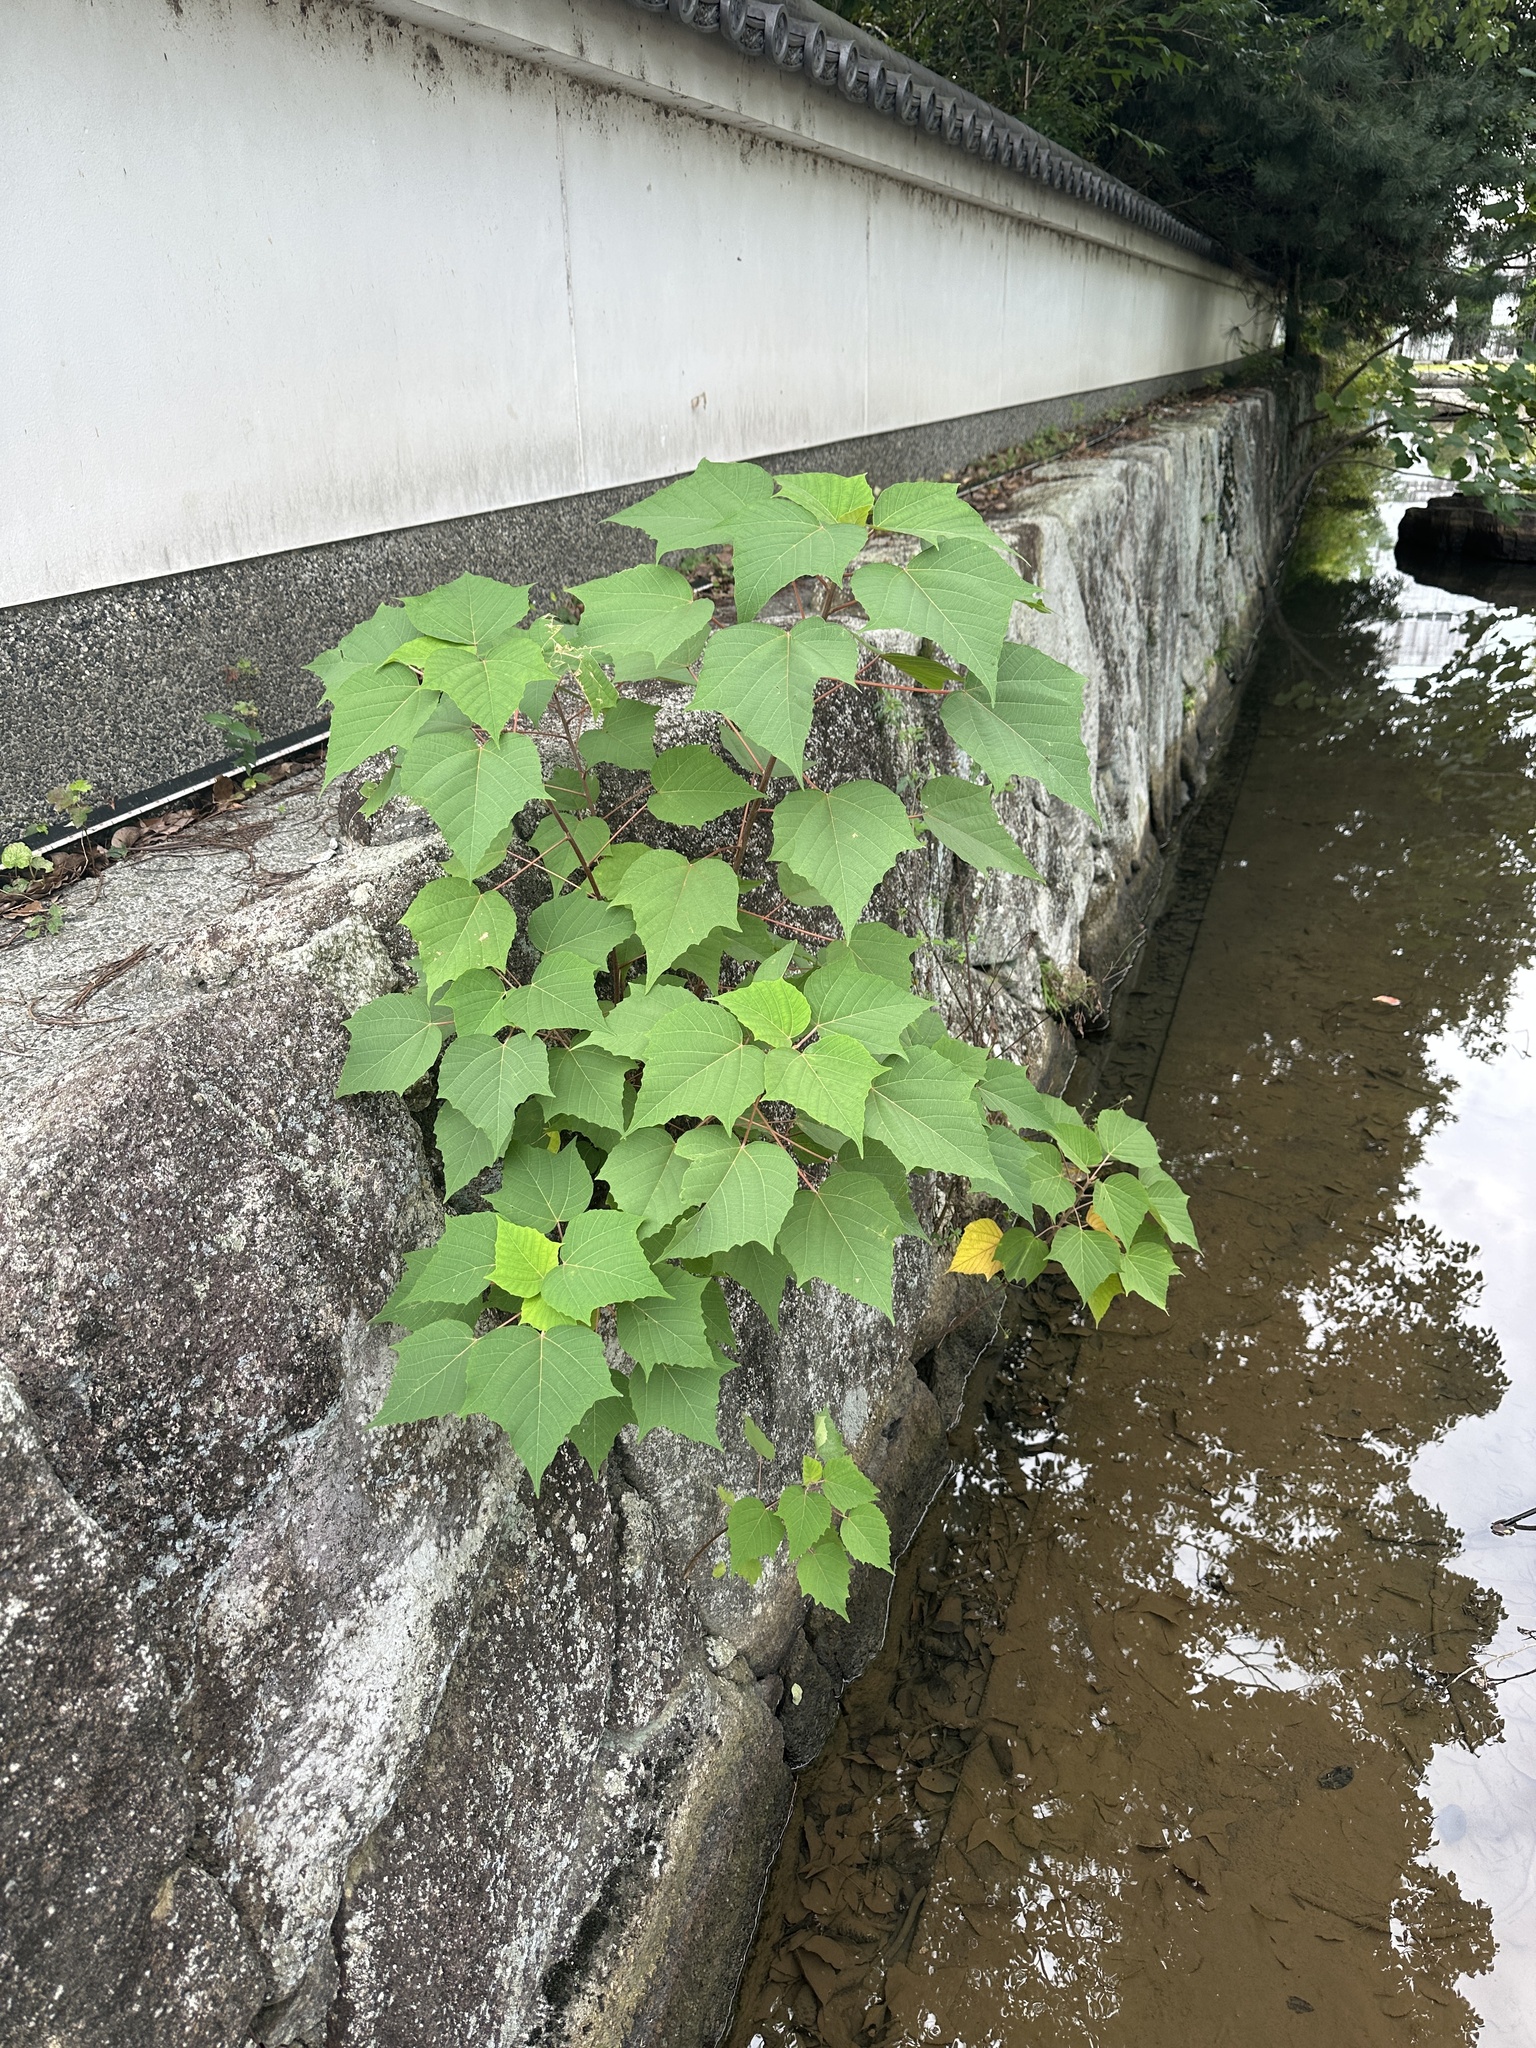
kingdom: Plantae
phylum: Tracheophyta
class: Magnoliopsida
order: Malpighiales
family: Euphorbiaceae
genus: Mallotus
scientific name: Mallotus japonicus
